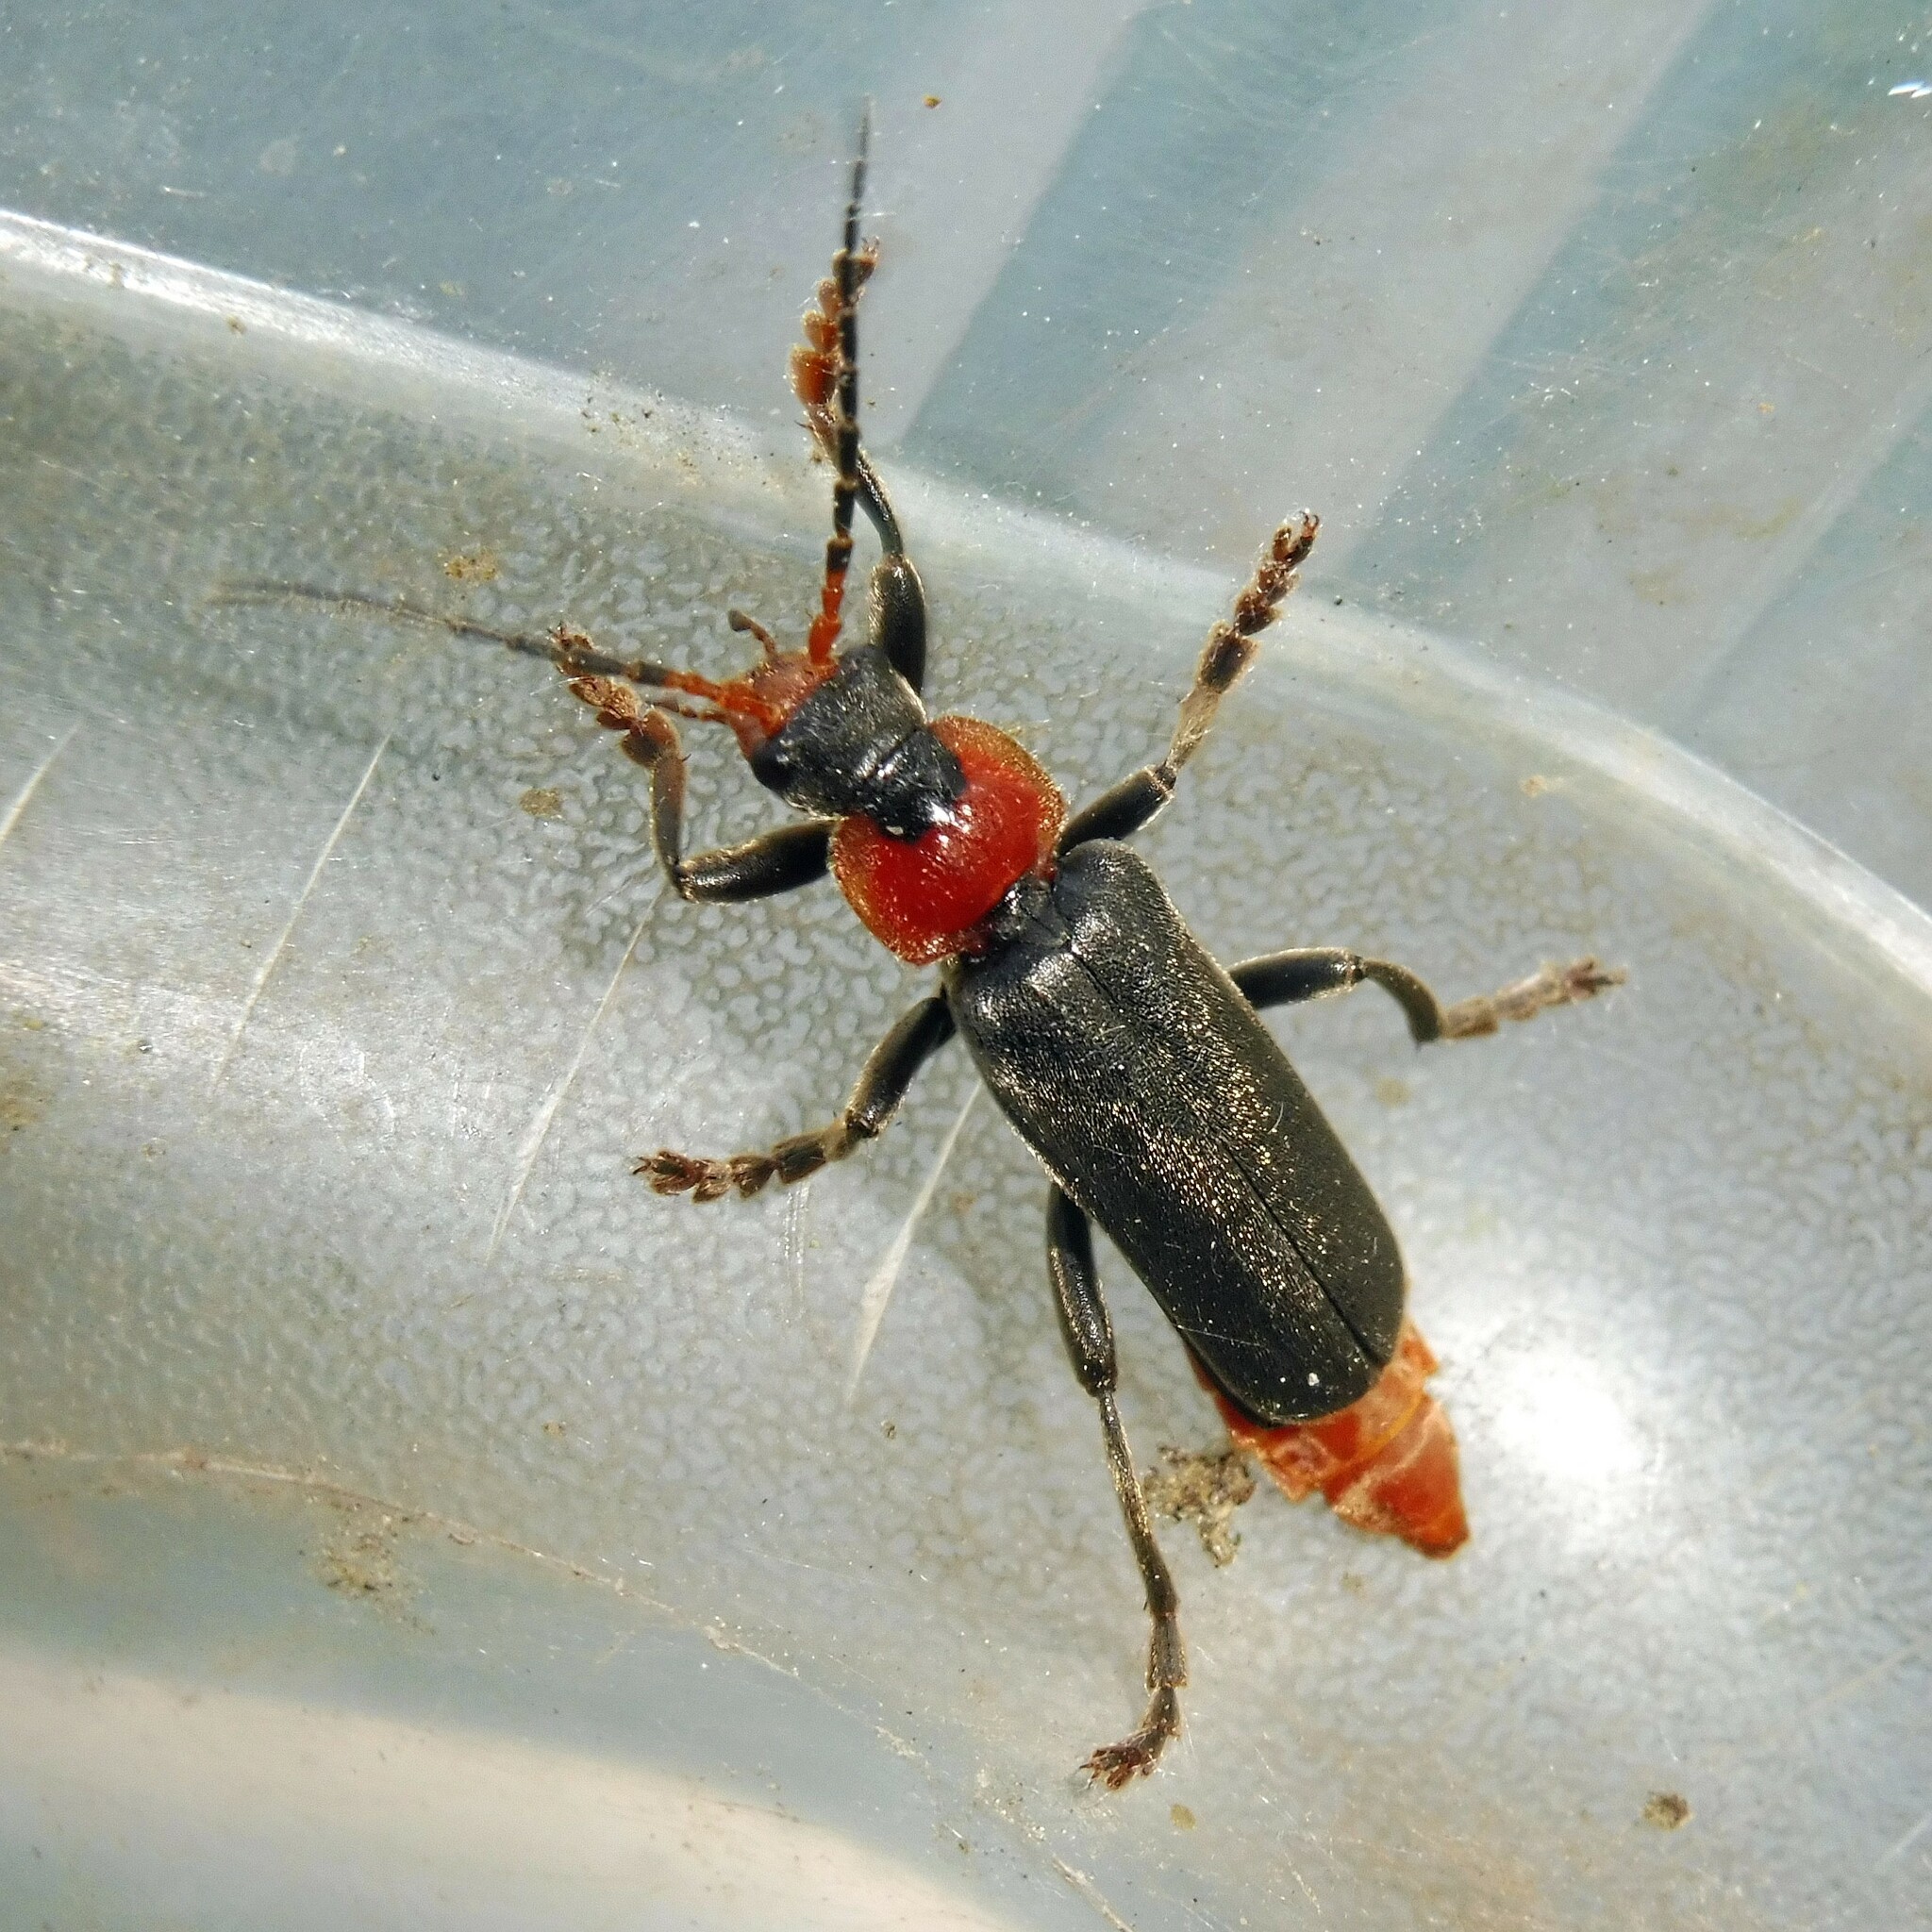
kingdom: Animalia
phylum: Arthropoda
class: Insecta
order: Coleoptera
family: Cantharidae
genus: Cantharis
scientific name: Cantharis fusca
